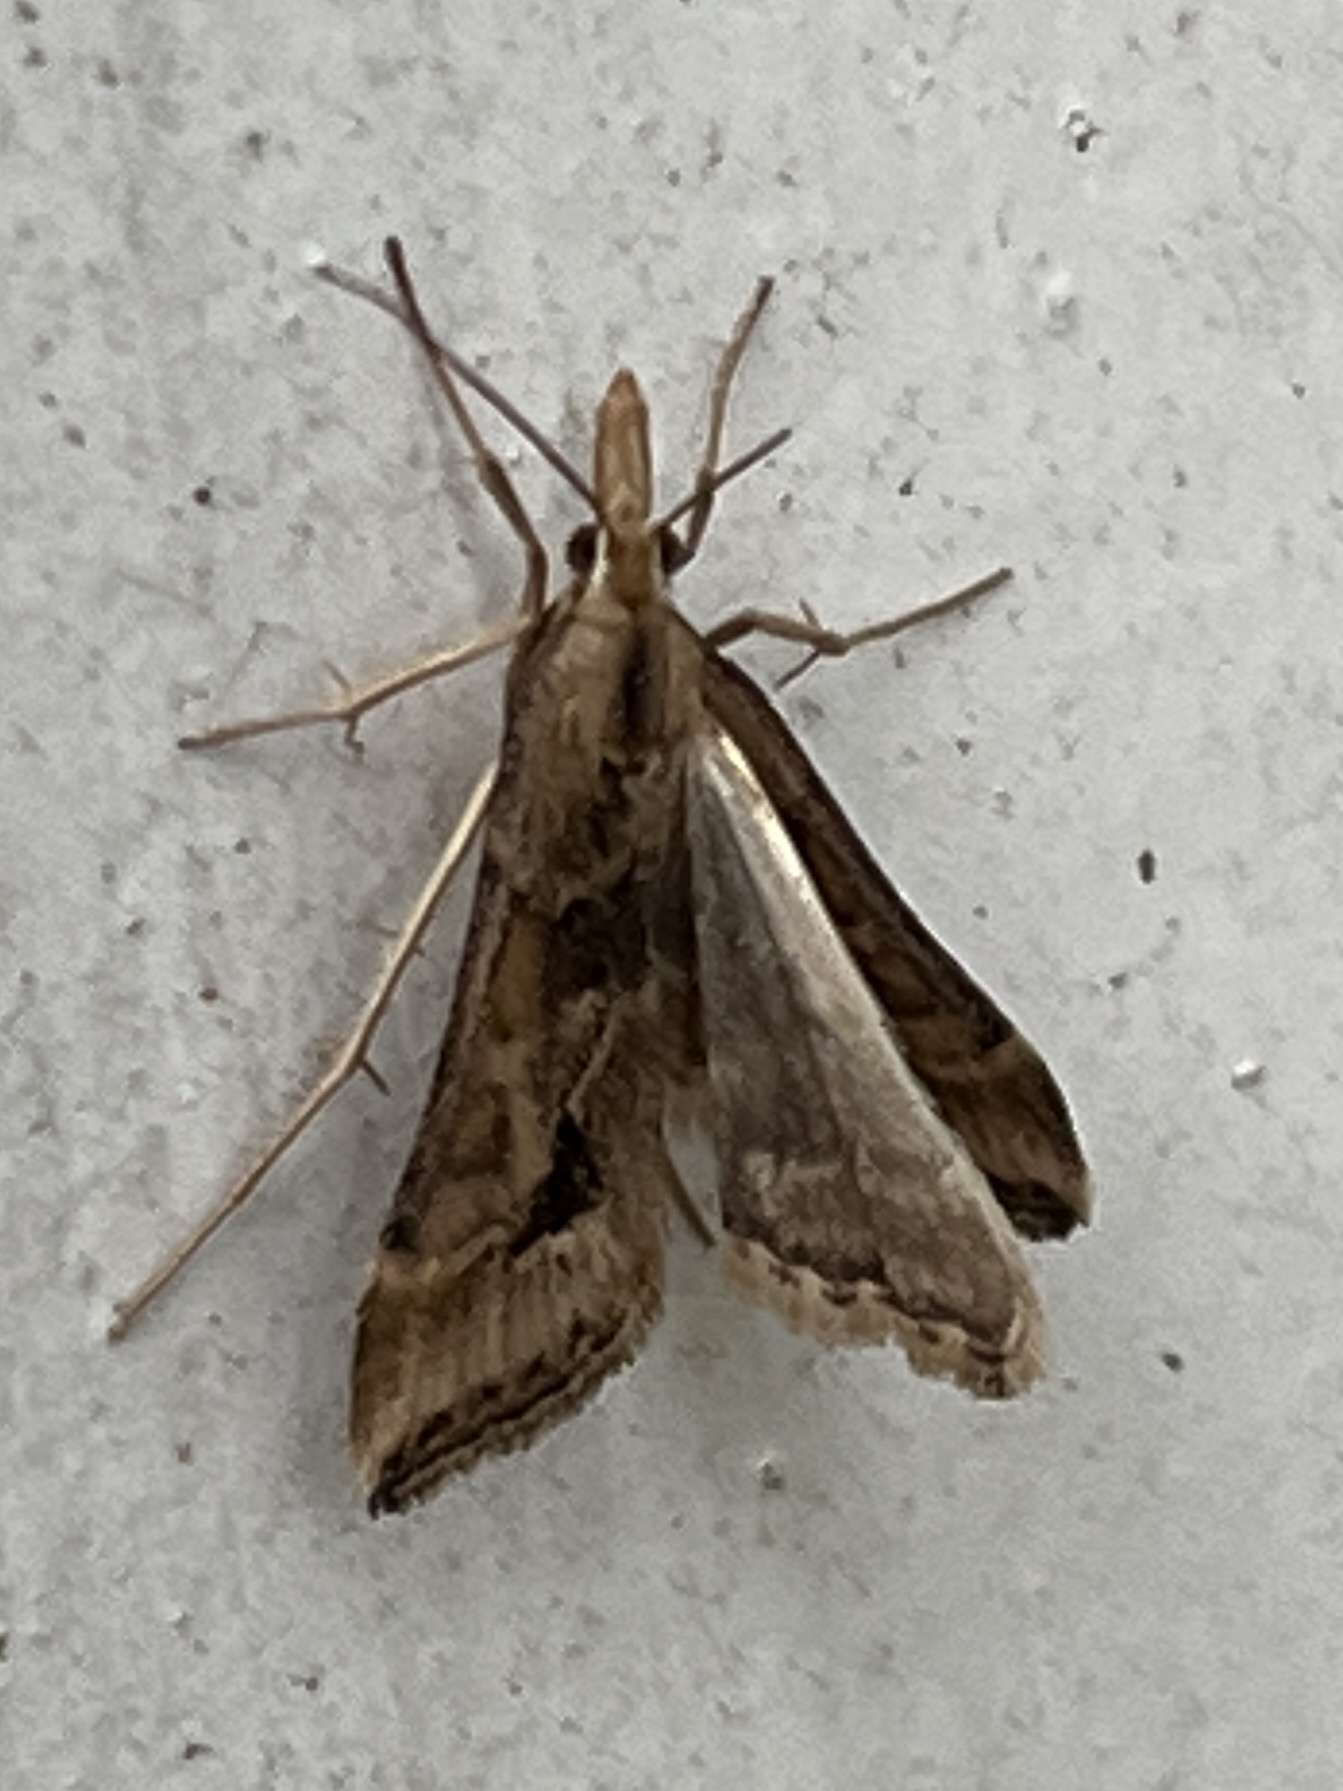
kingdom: Animalia
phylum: Arthropoda
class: Insecta
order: Lepidoptera
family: Crambidae
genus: Diasemia
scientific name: Diasemia monostigma
